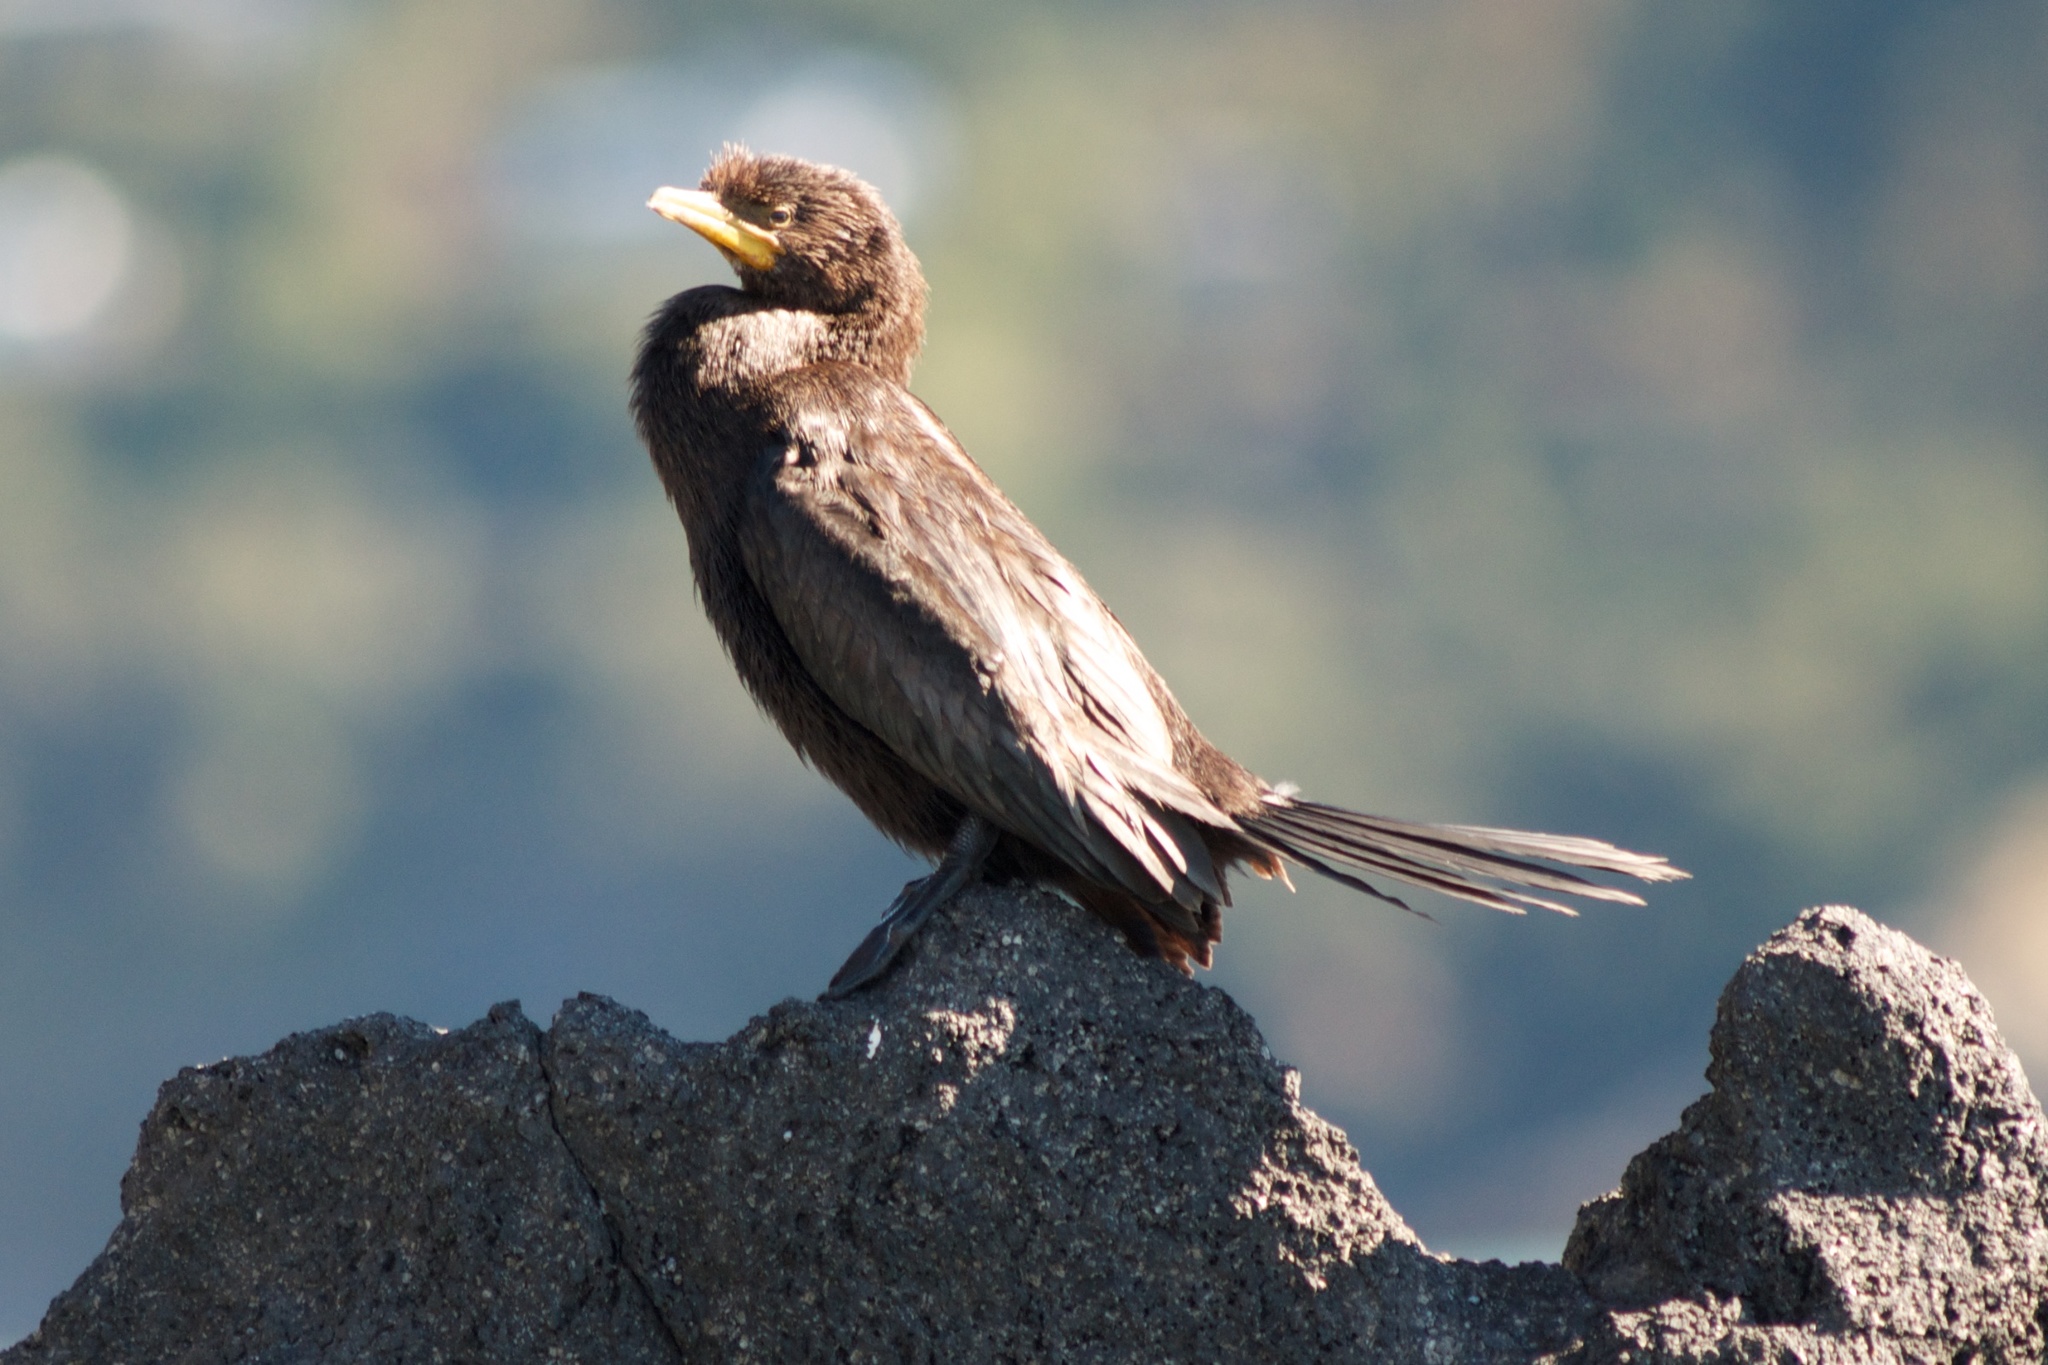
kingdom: Animalia
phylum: Chordata
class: Aves
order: Suliformes
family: Phalacrocoracidae
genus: Microcarbo
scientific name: Microcarbo melanoleucos
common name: Little pied cormorant
